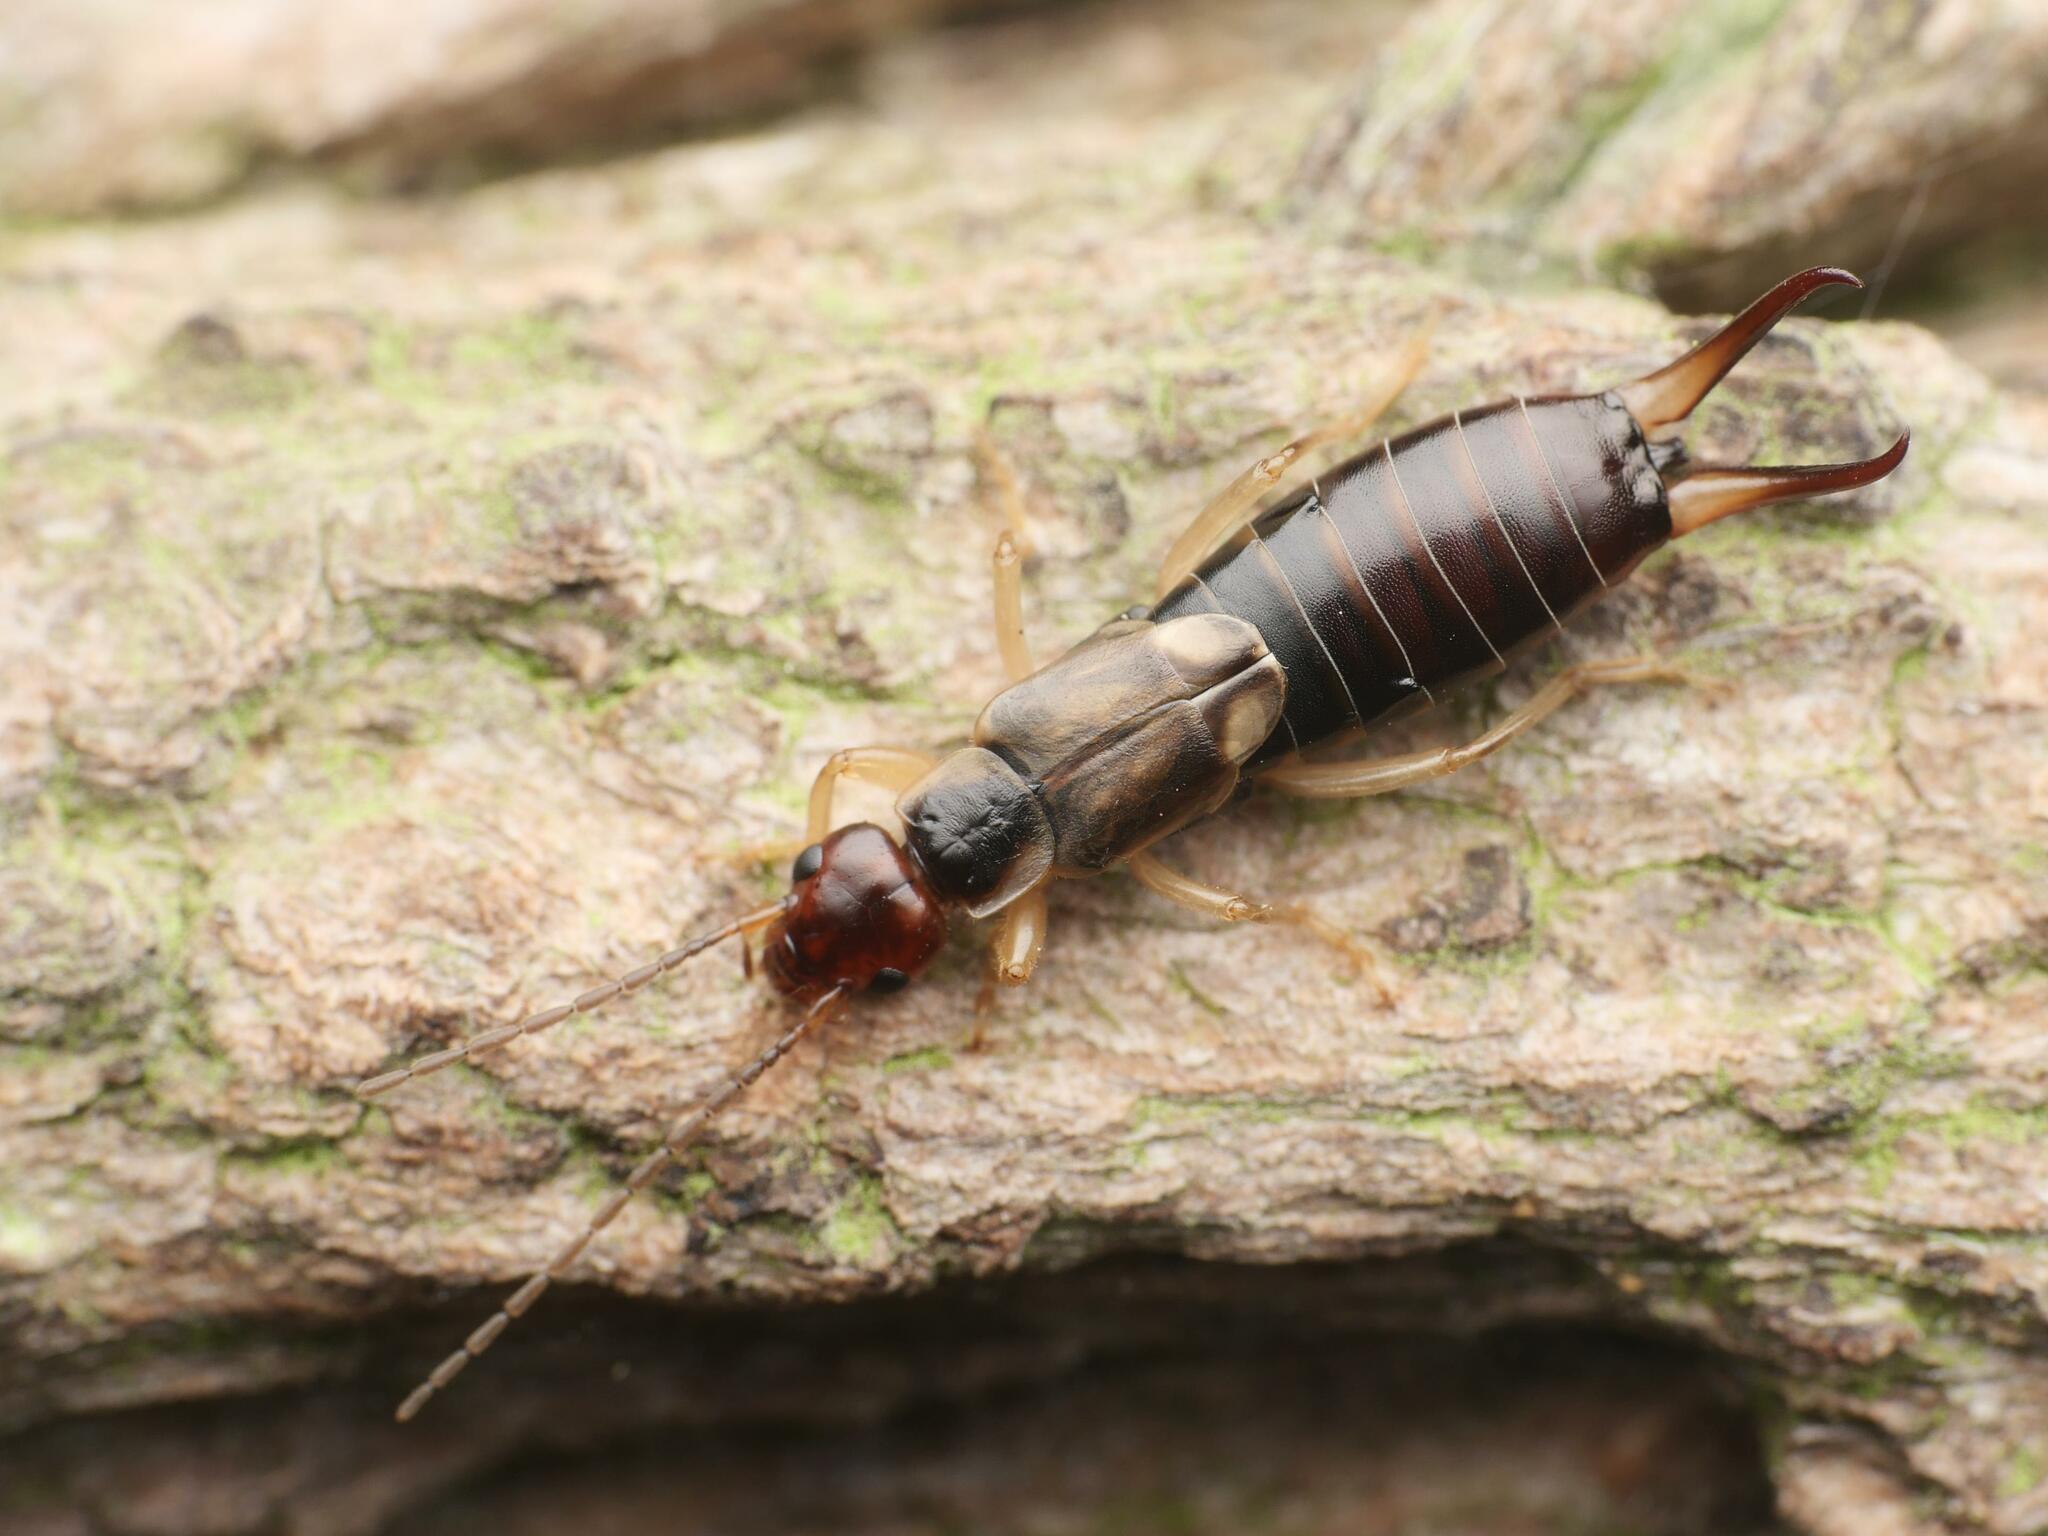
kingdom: Animalia
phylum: Arthropoda
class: Insecta
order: Dermaptera
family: Forficulidae
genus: Forficula
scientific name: Forficula
